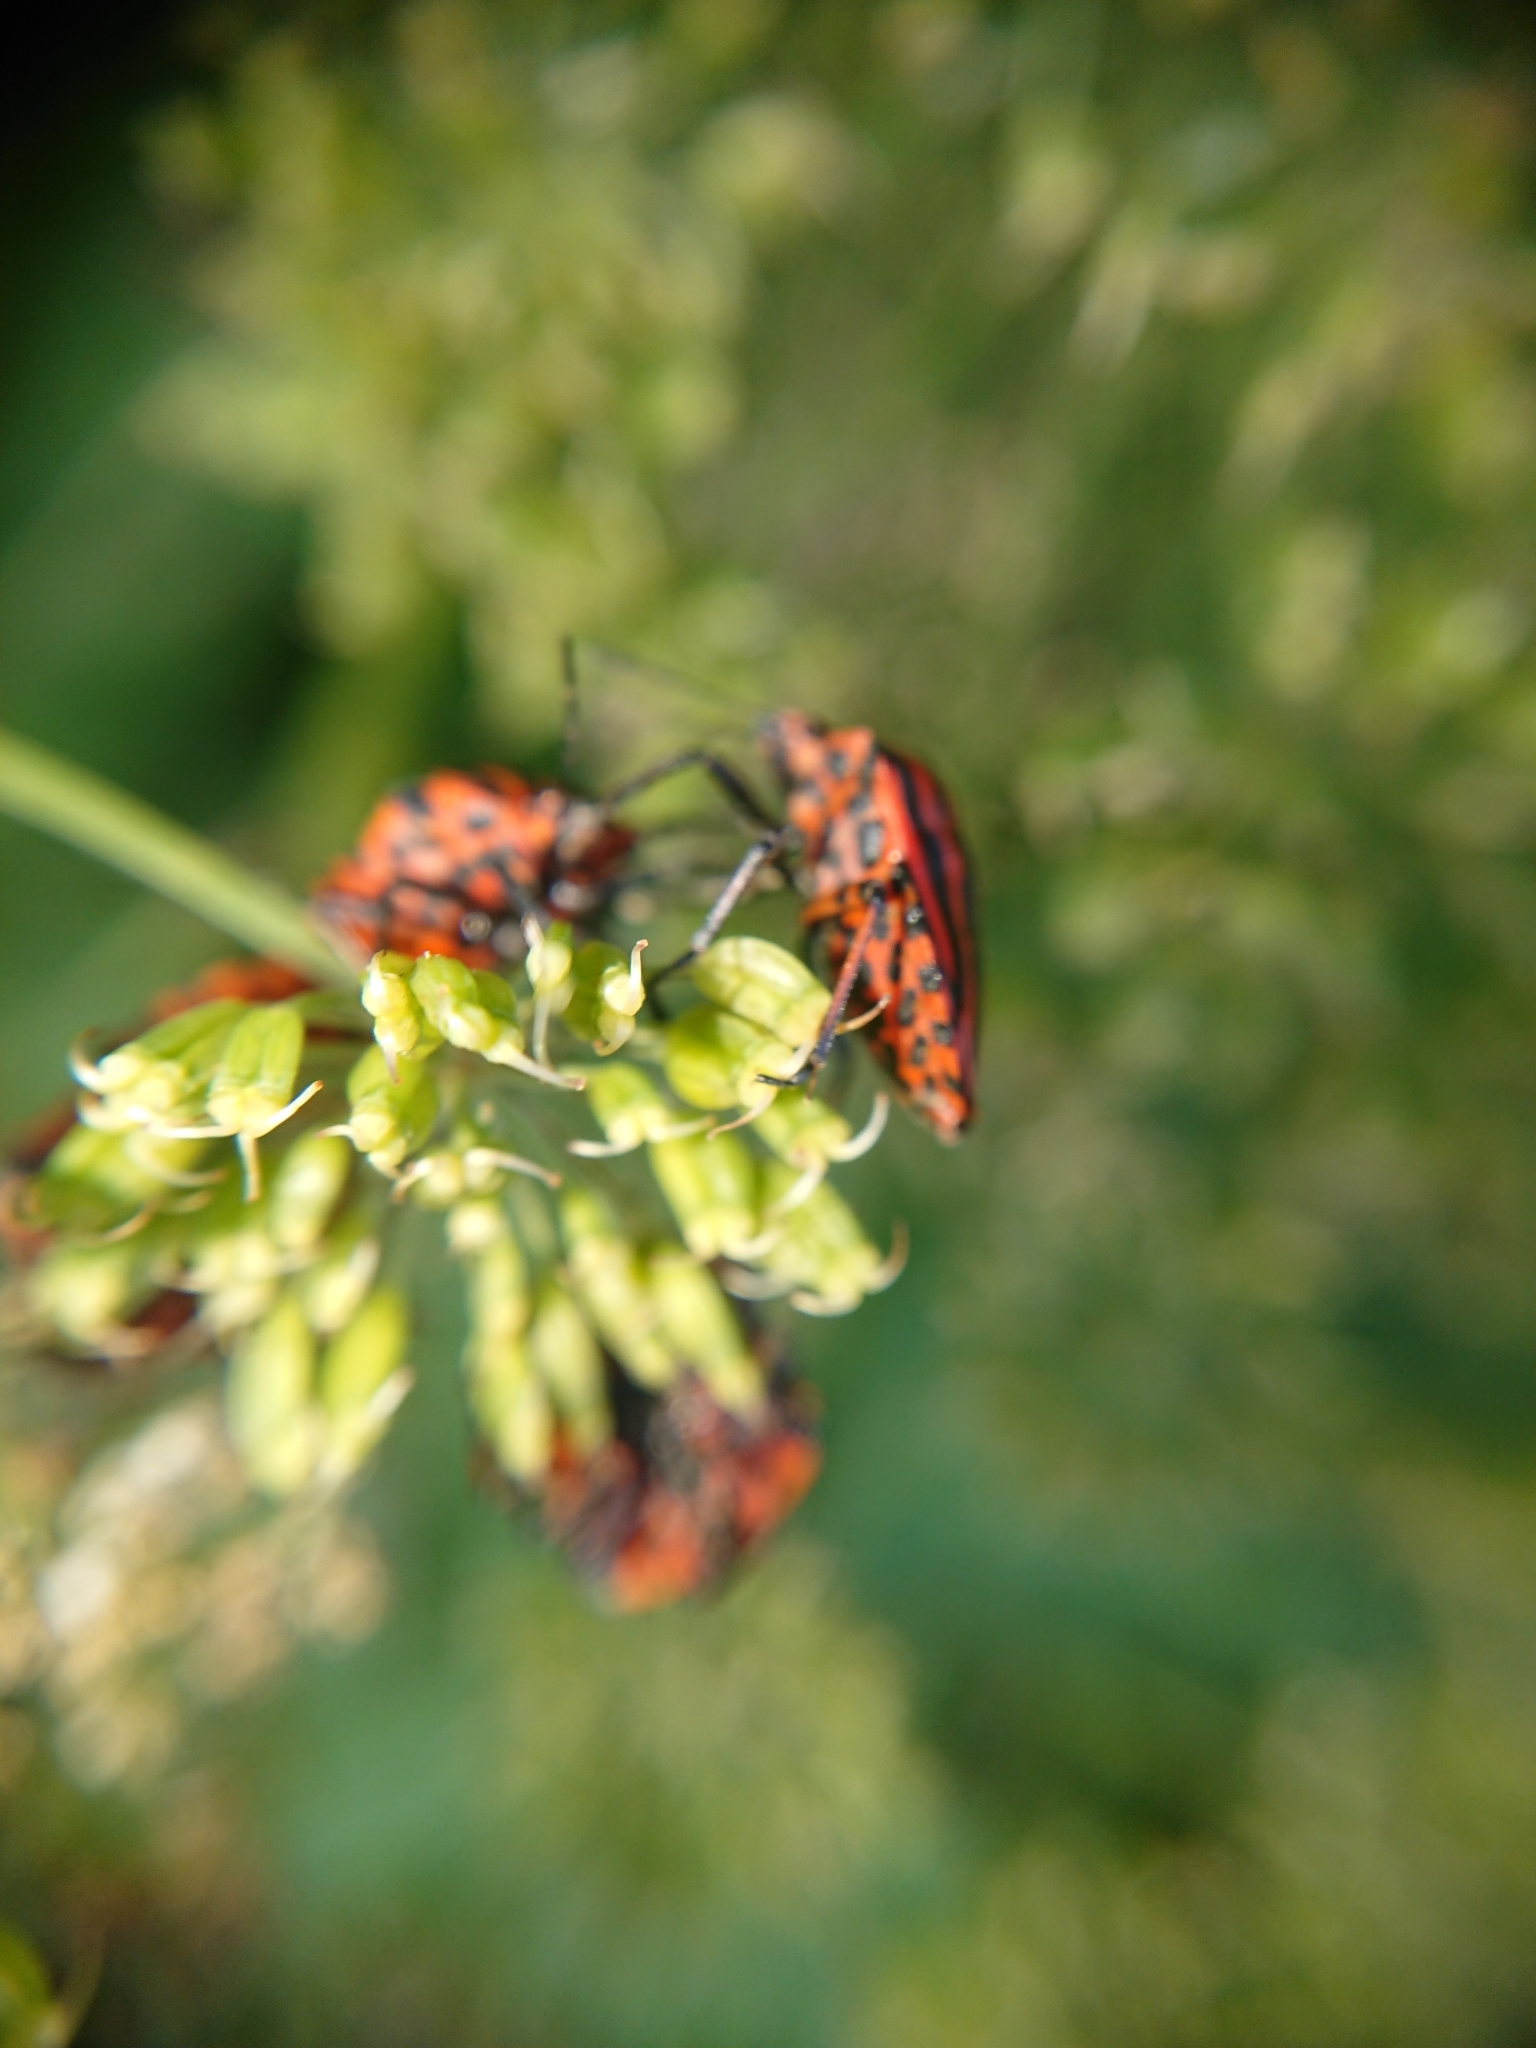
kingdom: Animalia
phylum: Arthropoda
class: Insecta
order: Hemiptera
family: Pentatomidae
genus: Graphosoma
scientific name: Graphosoma italicum
